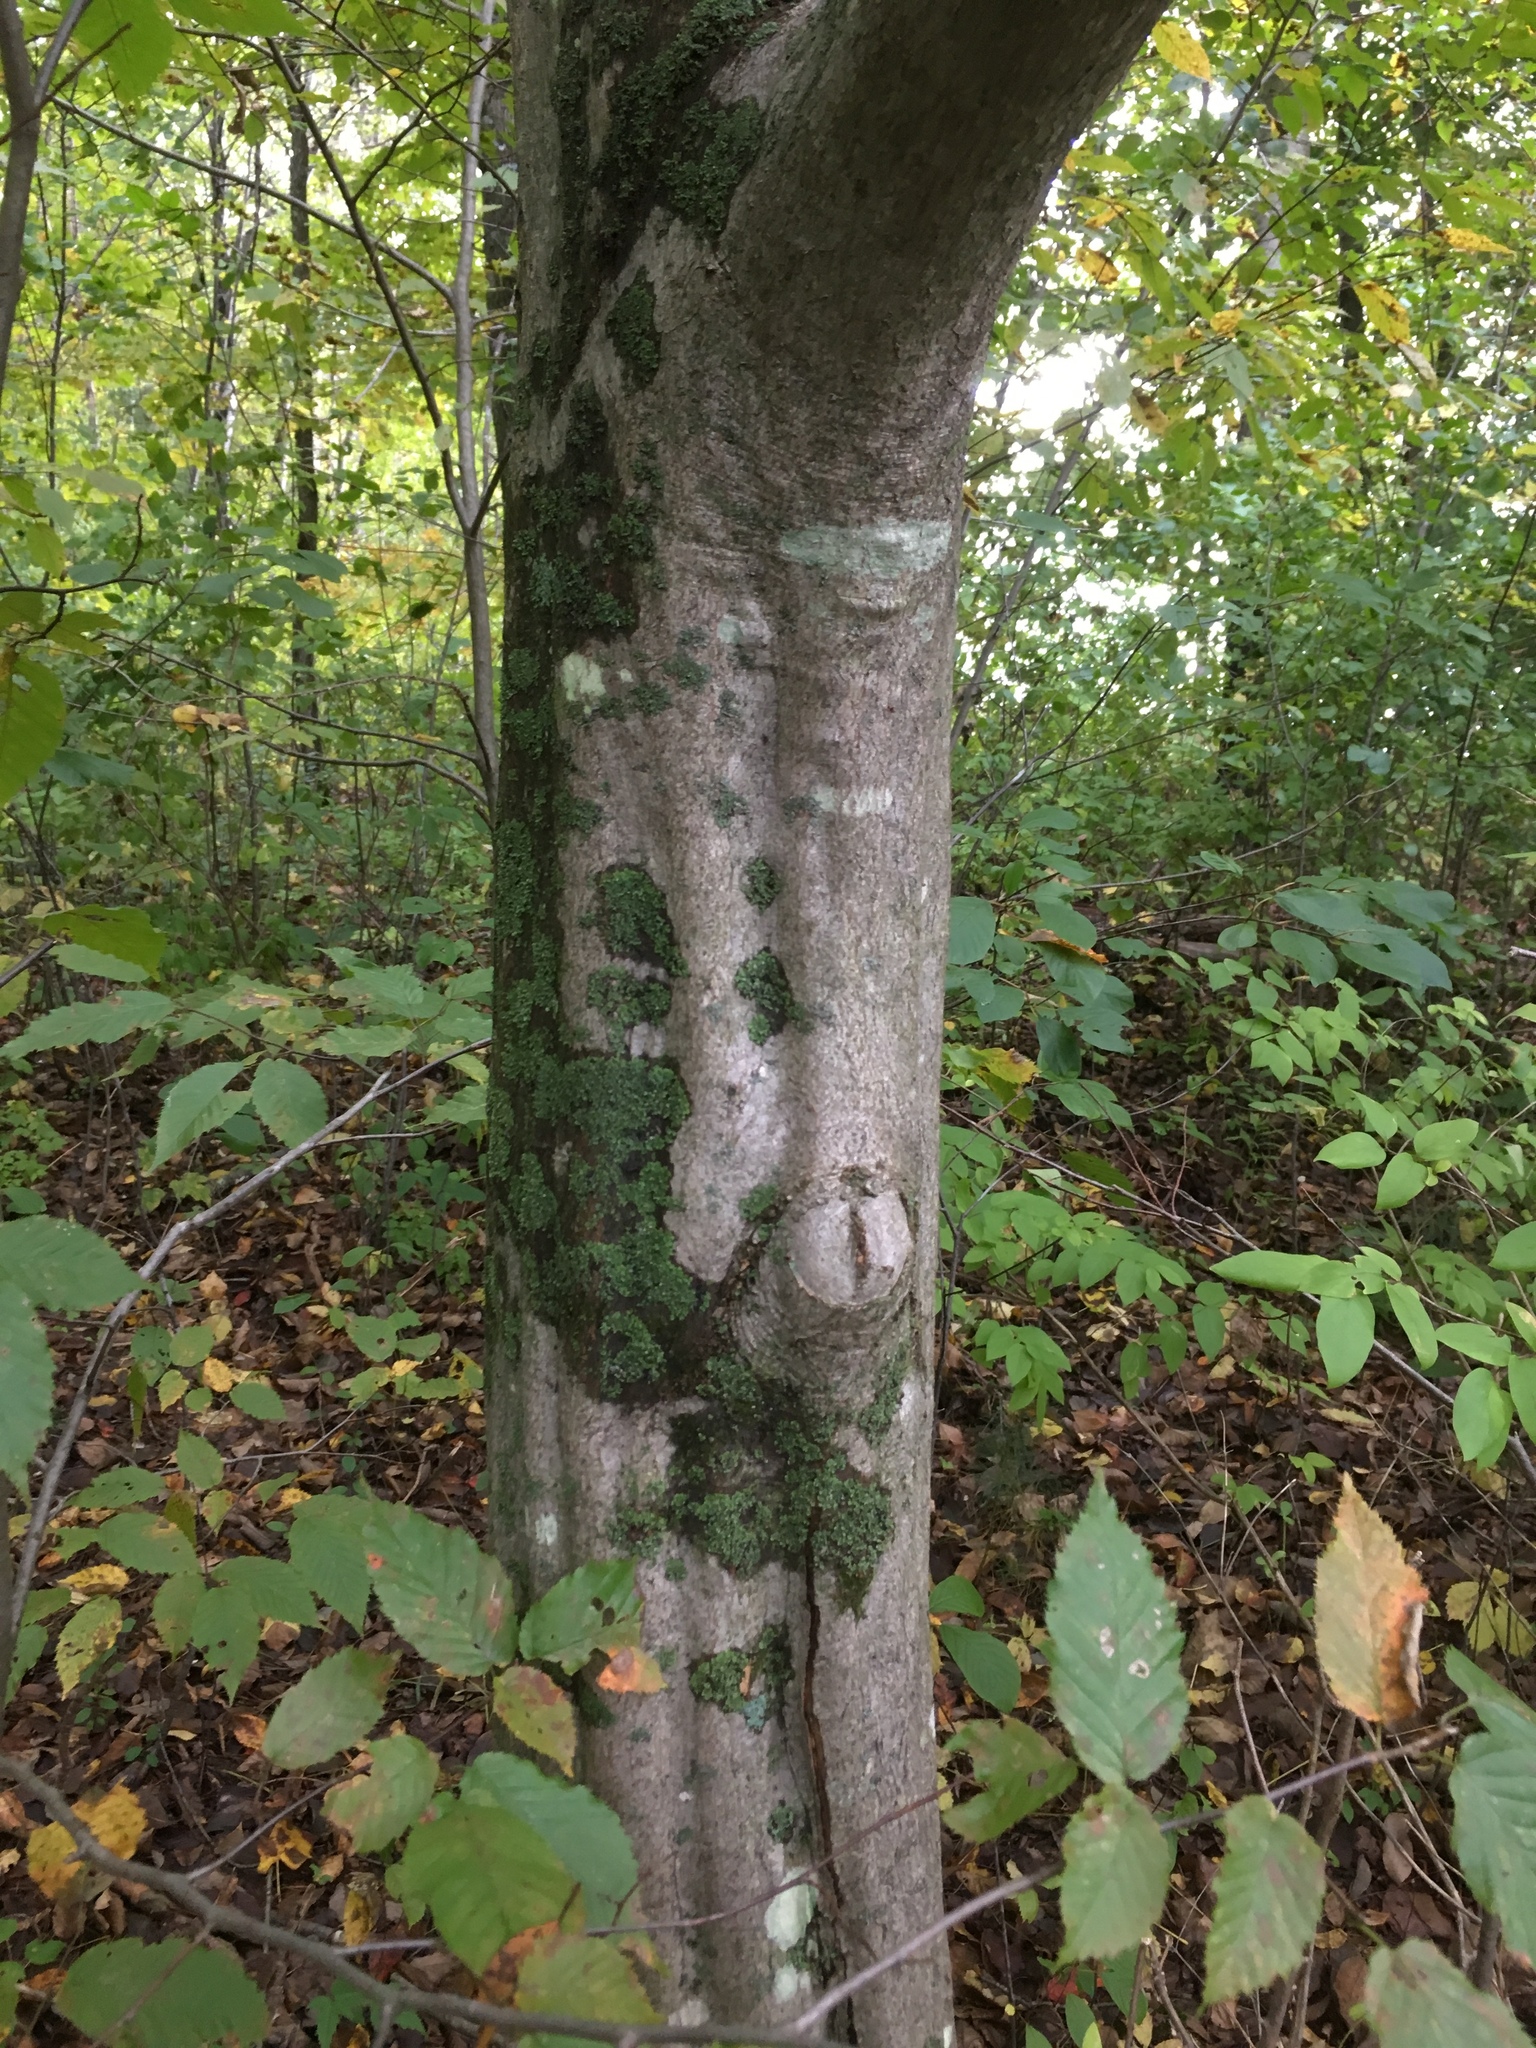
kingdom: Plantae
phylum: Tracheophyta
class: Magnoliopsida
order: Fagales
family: Betulaceae
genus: Carpinus
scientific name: Carpinus caroliniana
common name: American hornbeam
